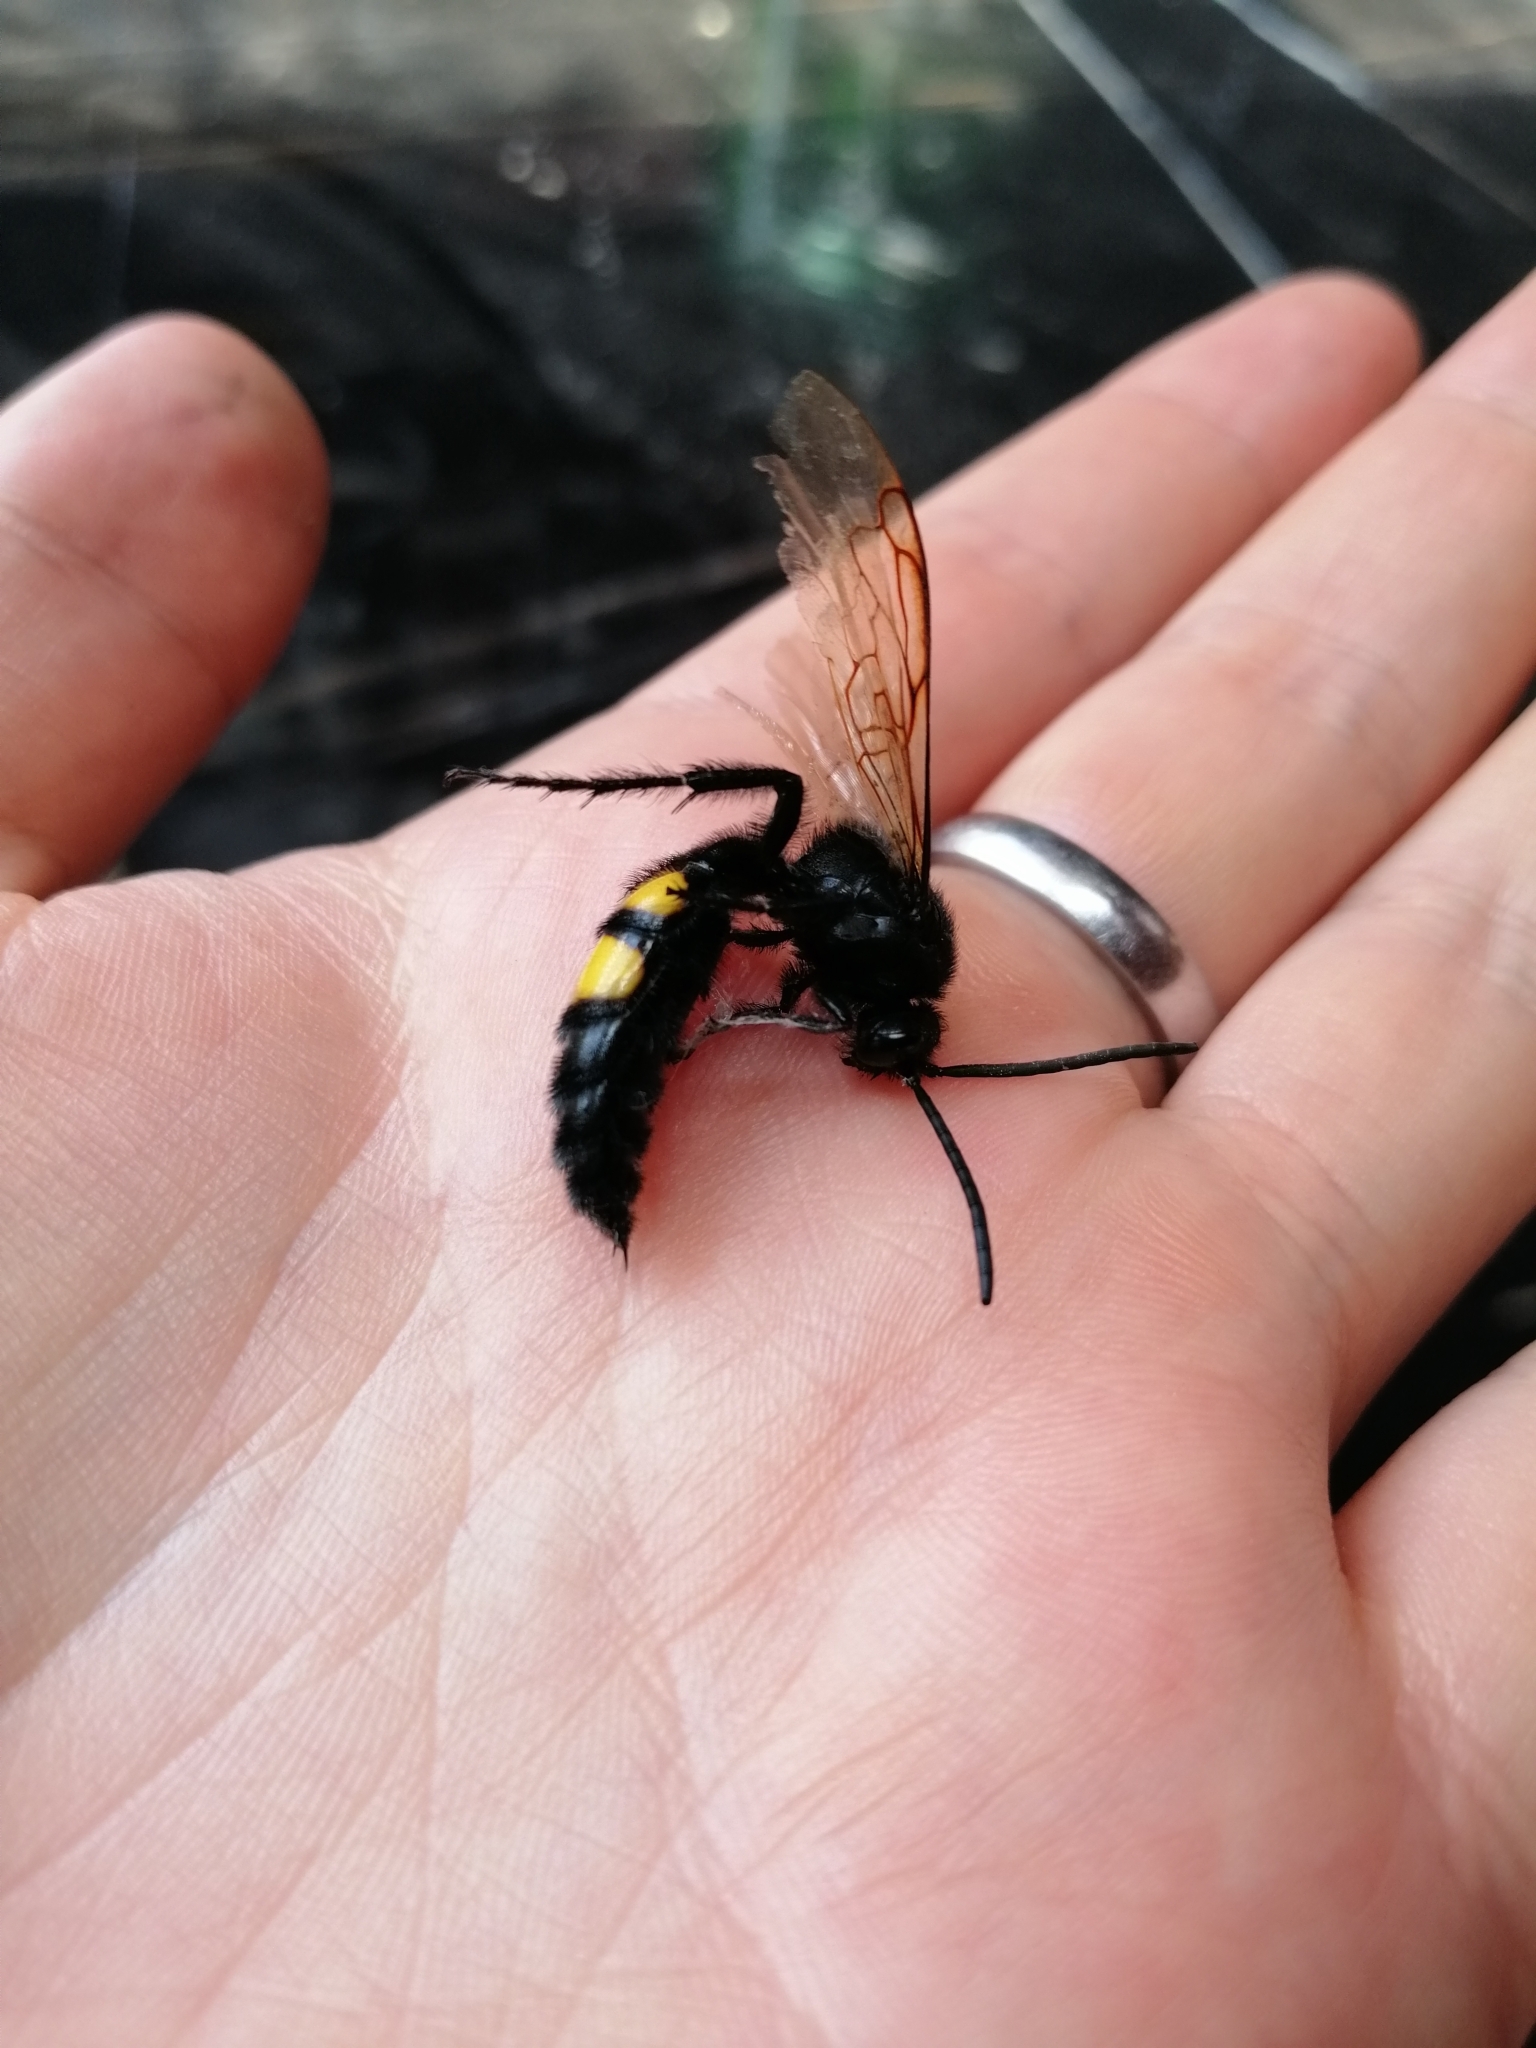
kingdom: Animalia
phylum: Arthropoda
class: Insecta
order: Hymenoptera
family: Scoliidae
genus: Pygodasis
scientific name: Pygodasis ephippium
